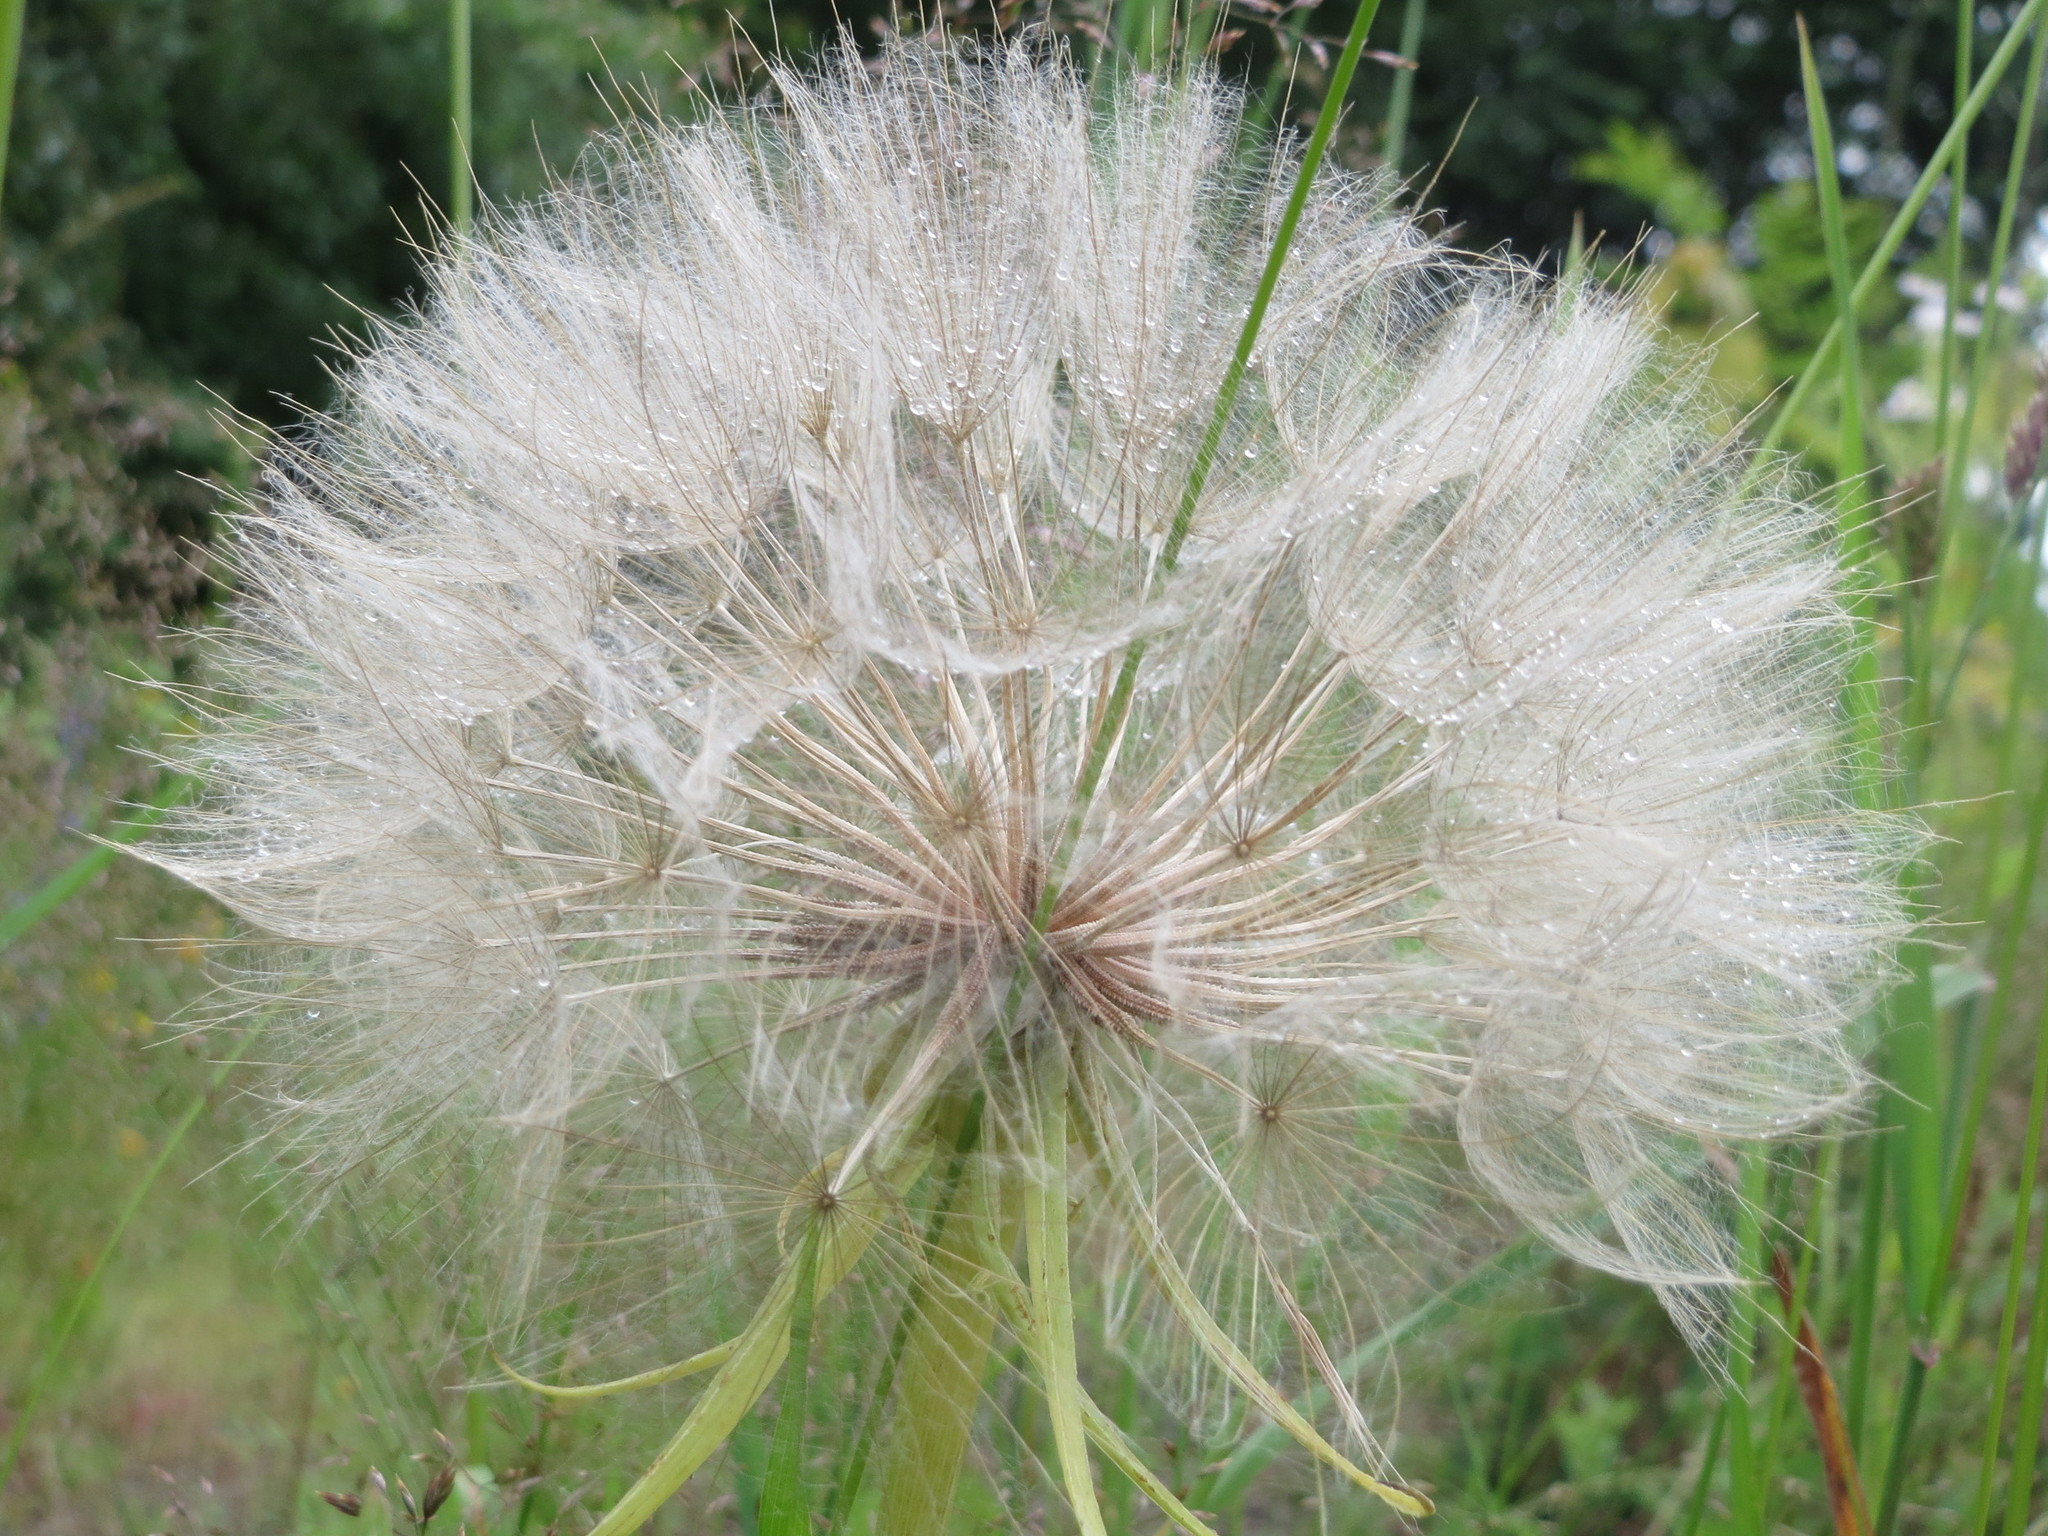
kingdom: Plantae
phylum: Tracheophyta
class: Magnoliopsida
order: Asterales
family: Asteraceae
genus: Tragopogon
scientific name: Tragopogon dubius
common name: Yellow salsify
